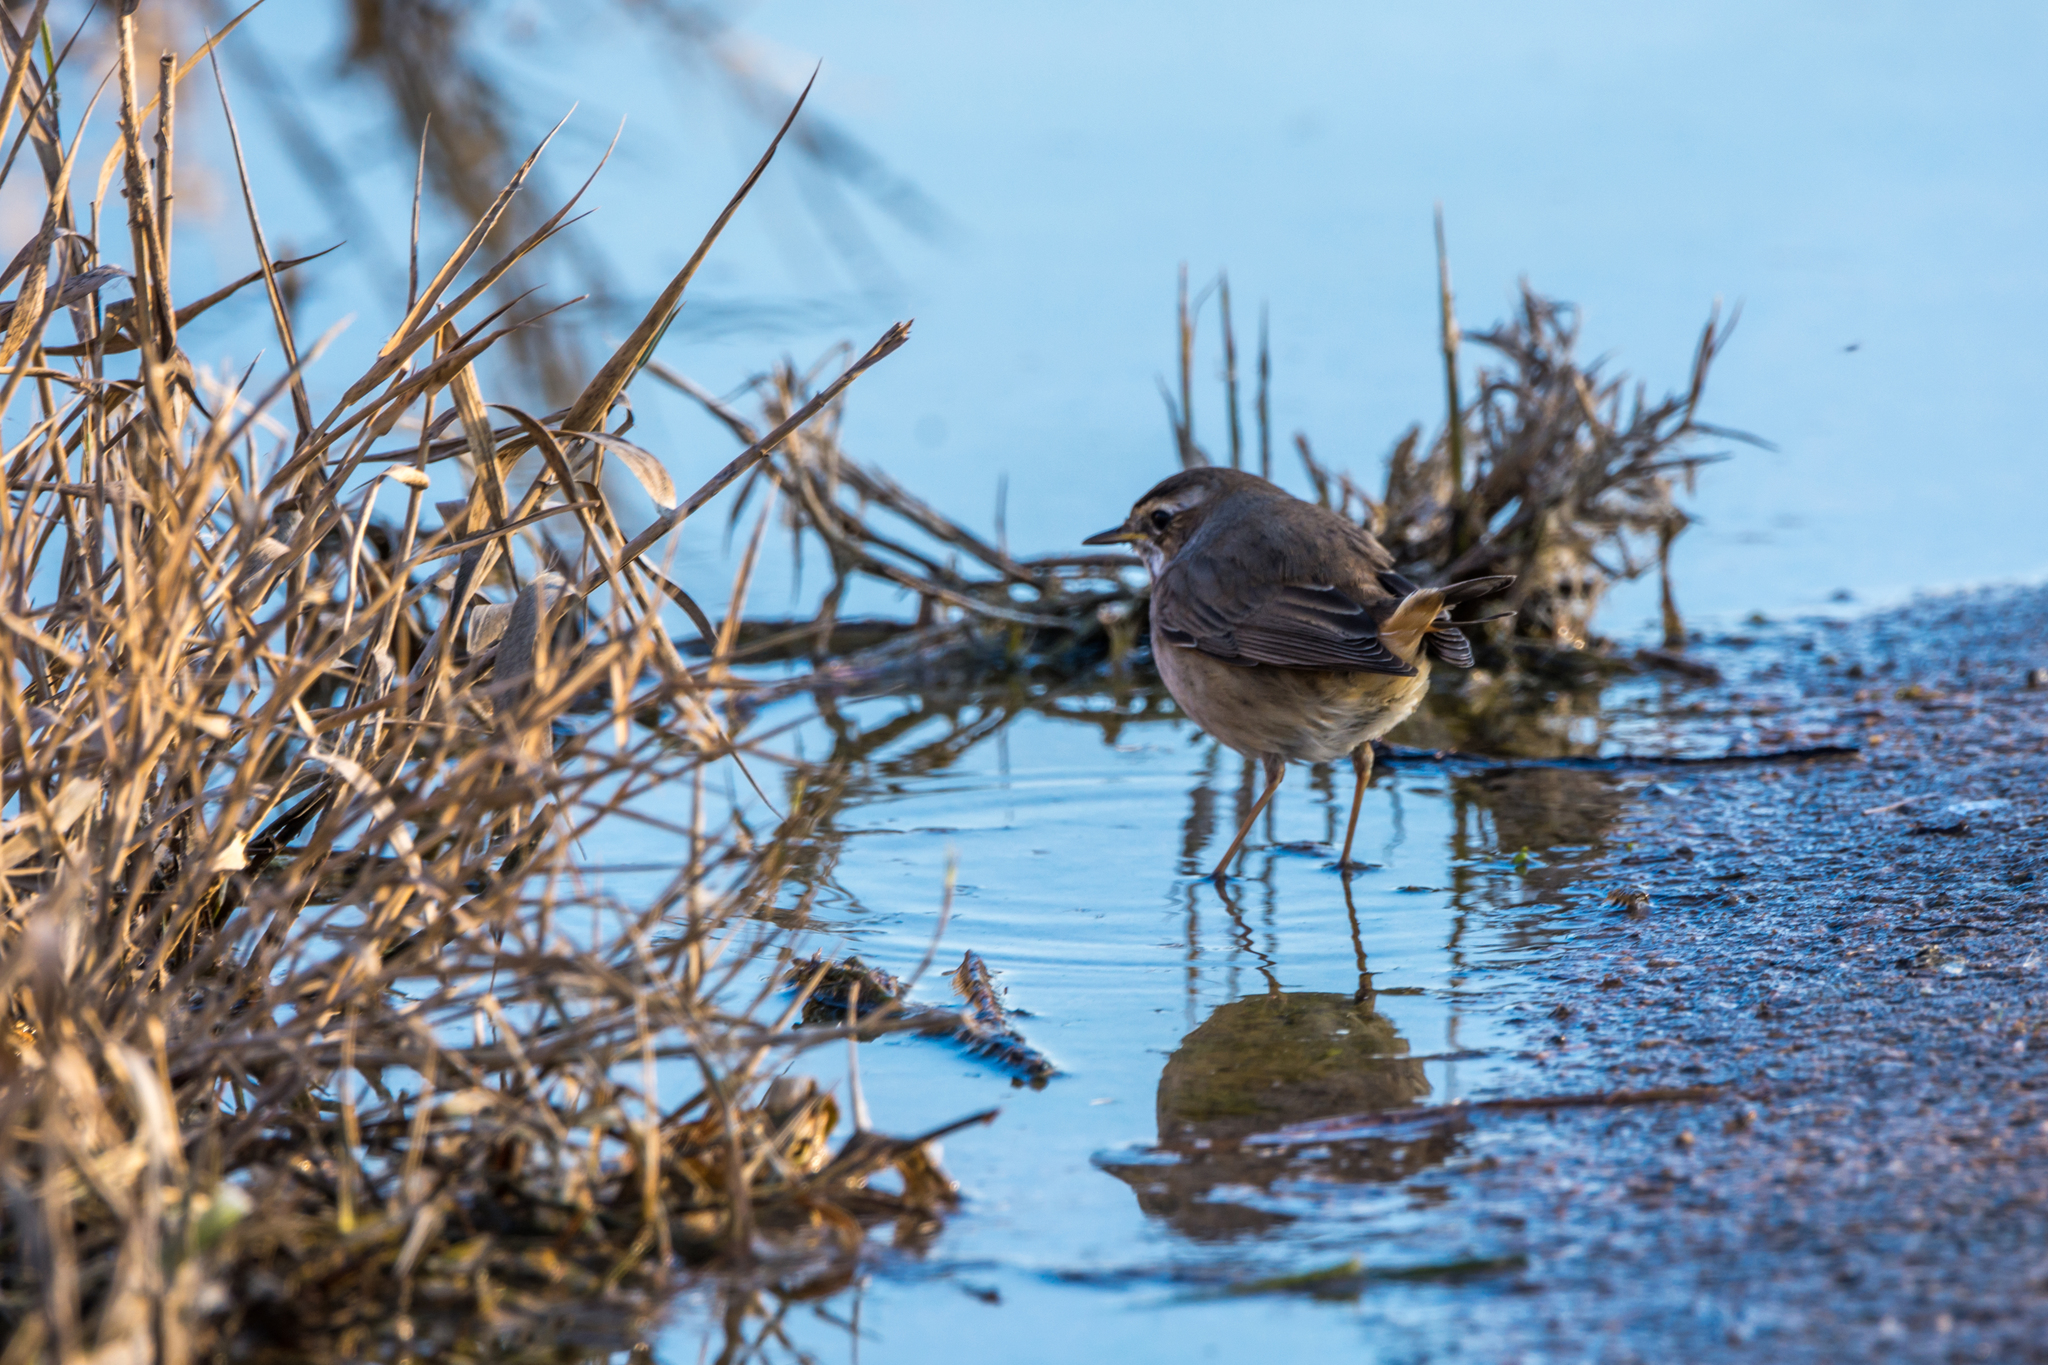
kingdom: Animalia
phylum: Chordata
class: Aves
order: Passeriformes
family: Muscicapidae
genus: Luscinia
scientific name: Luscinia svecica
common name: Bluethroat
